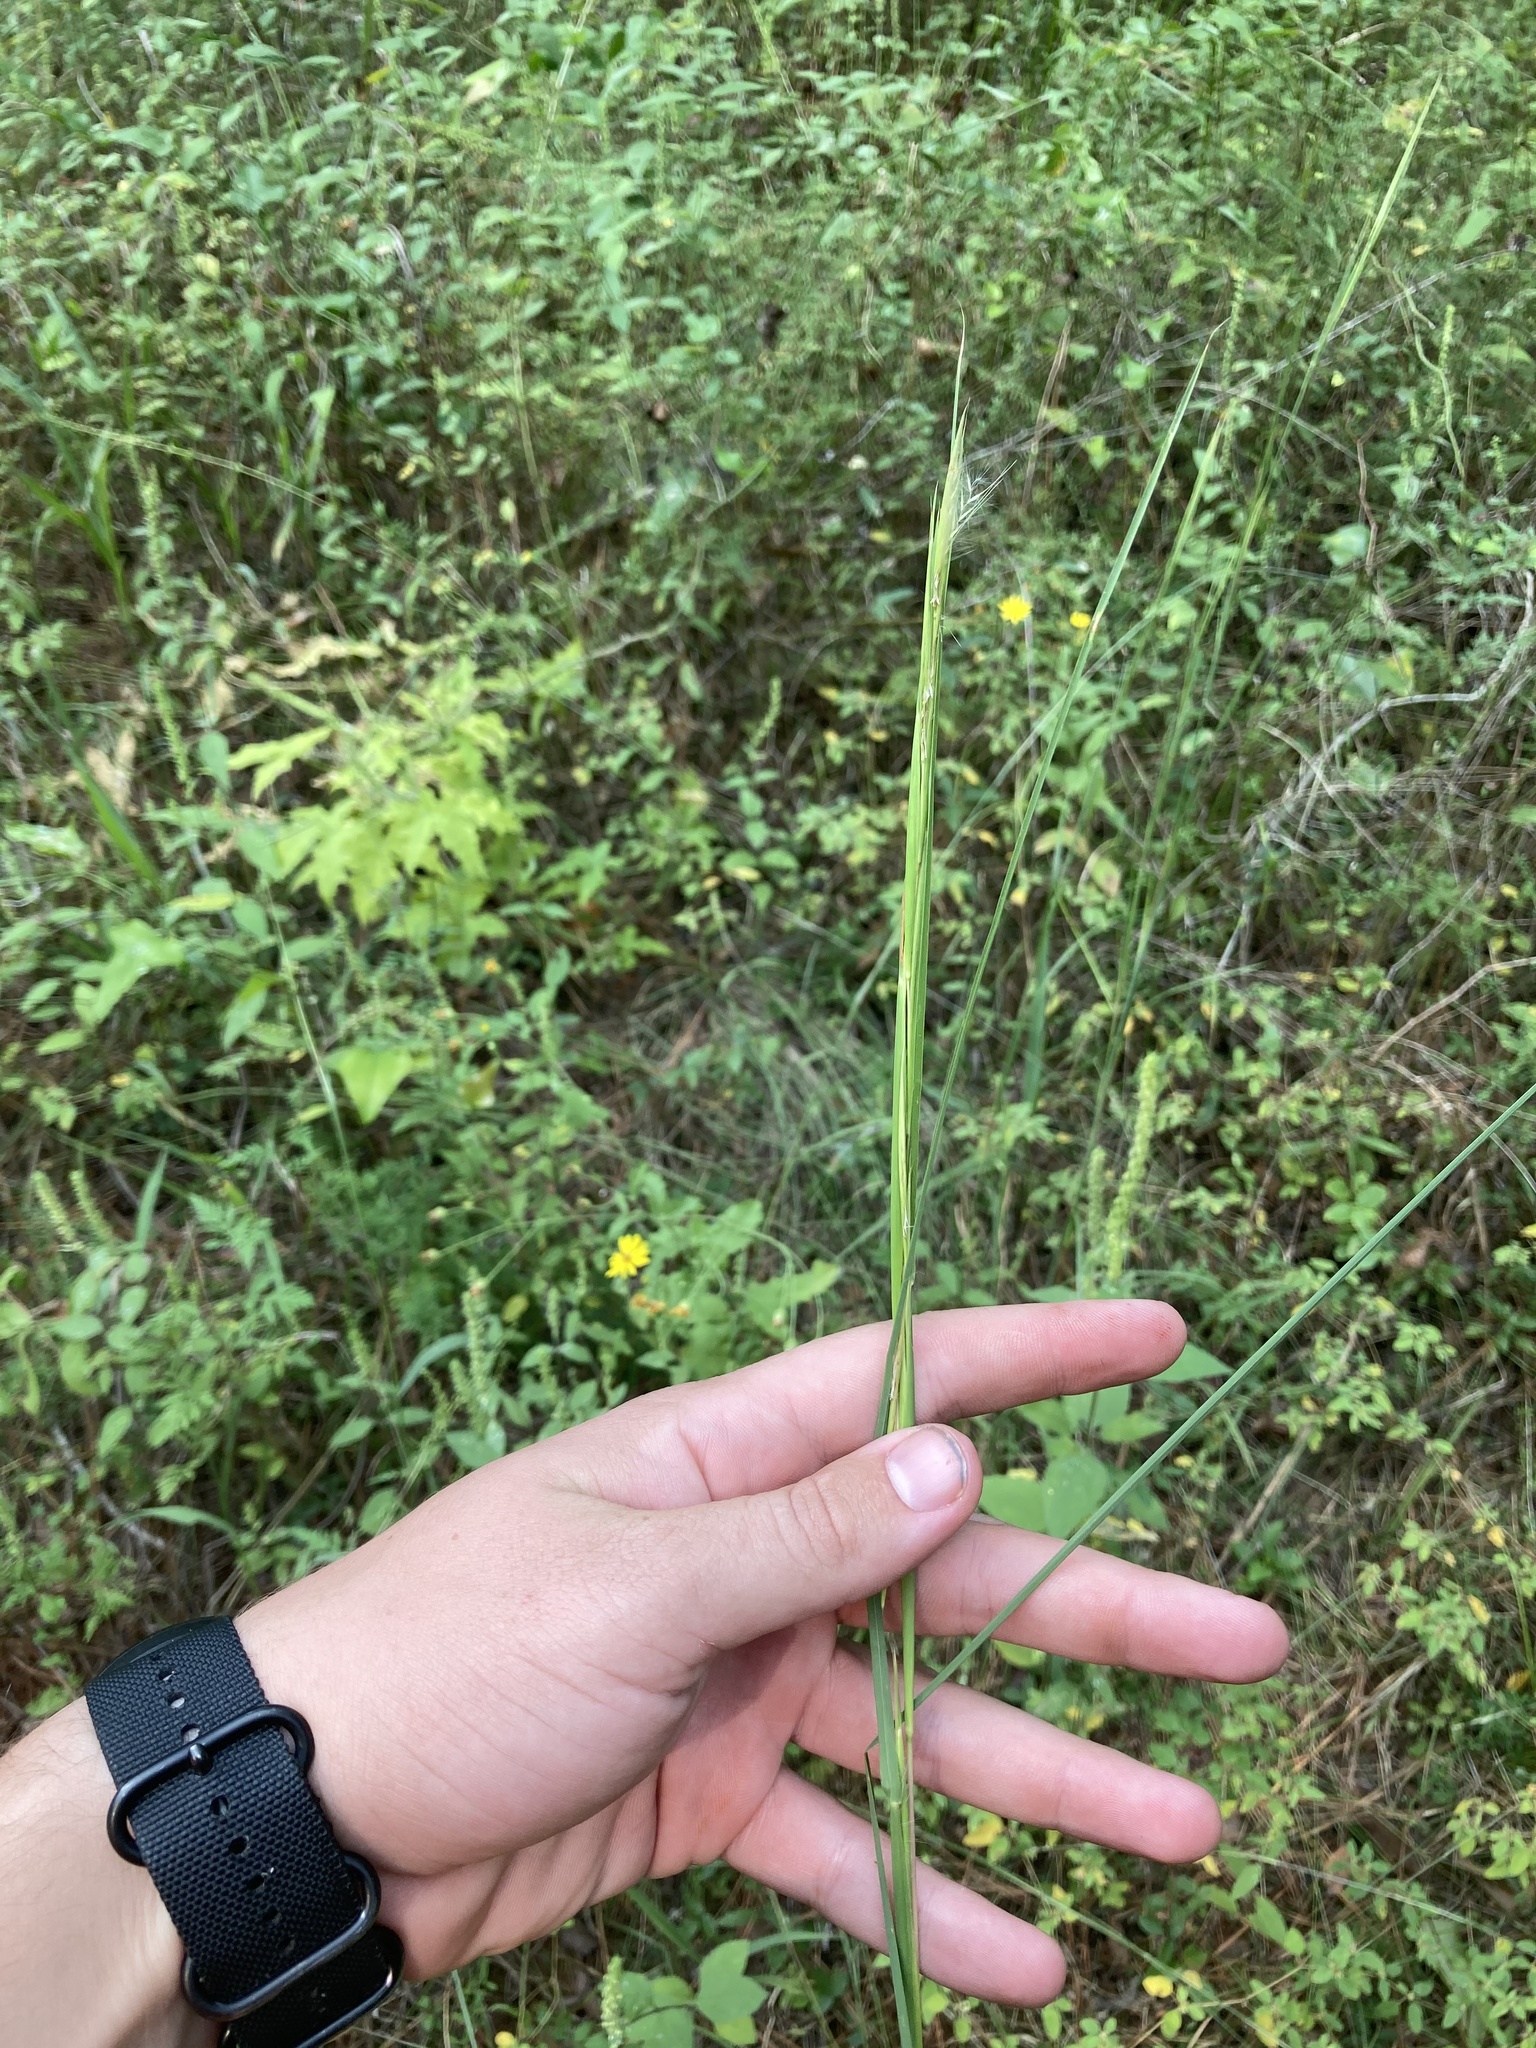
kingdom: Plantae
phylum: Tracheophyta
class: Liliopsida
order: Poales
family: Poaceae
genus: Andropogon
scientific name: Andropogon virginicus
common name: Broomsedge bluestem
